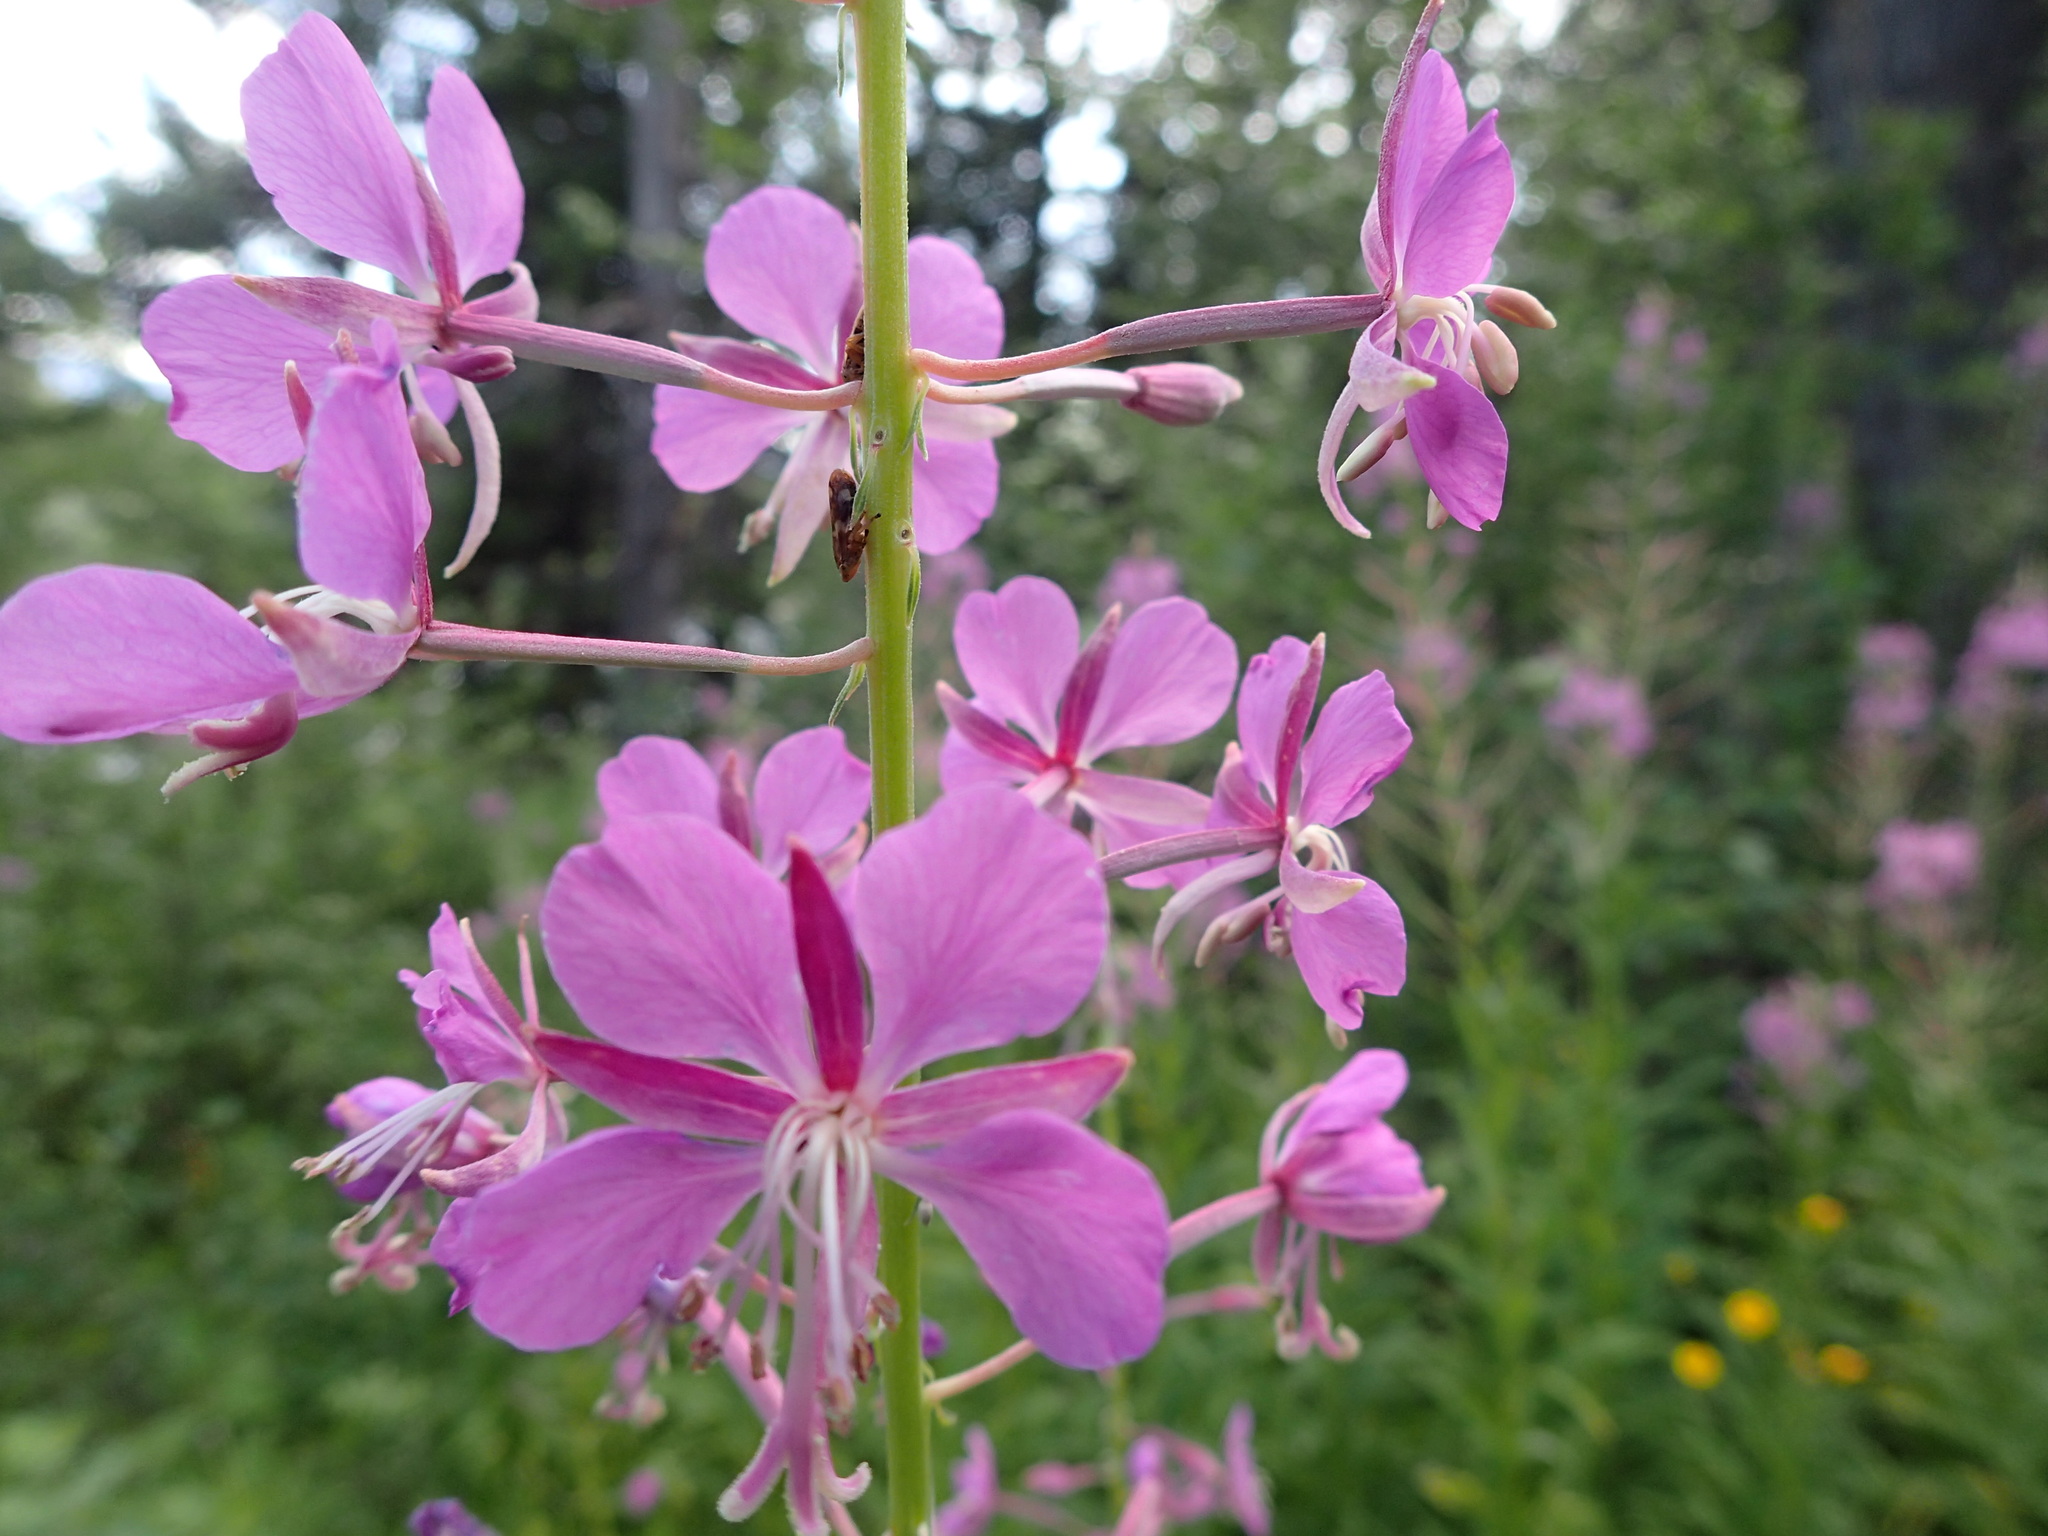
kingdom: Plantae
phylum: Tracheophyta
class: Magnoliopsida
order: Myrtales
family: Onagraceae
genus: Chamaenerion
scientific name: Chamaenerion angustifolium
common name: Fireweed
